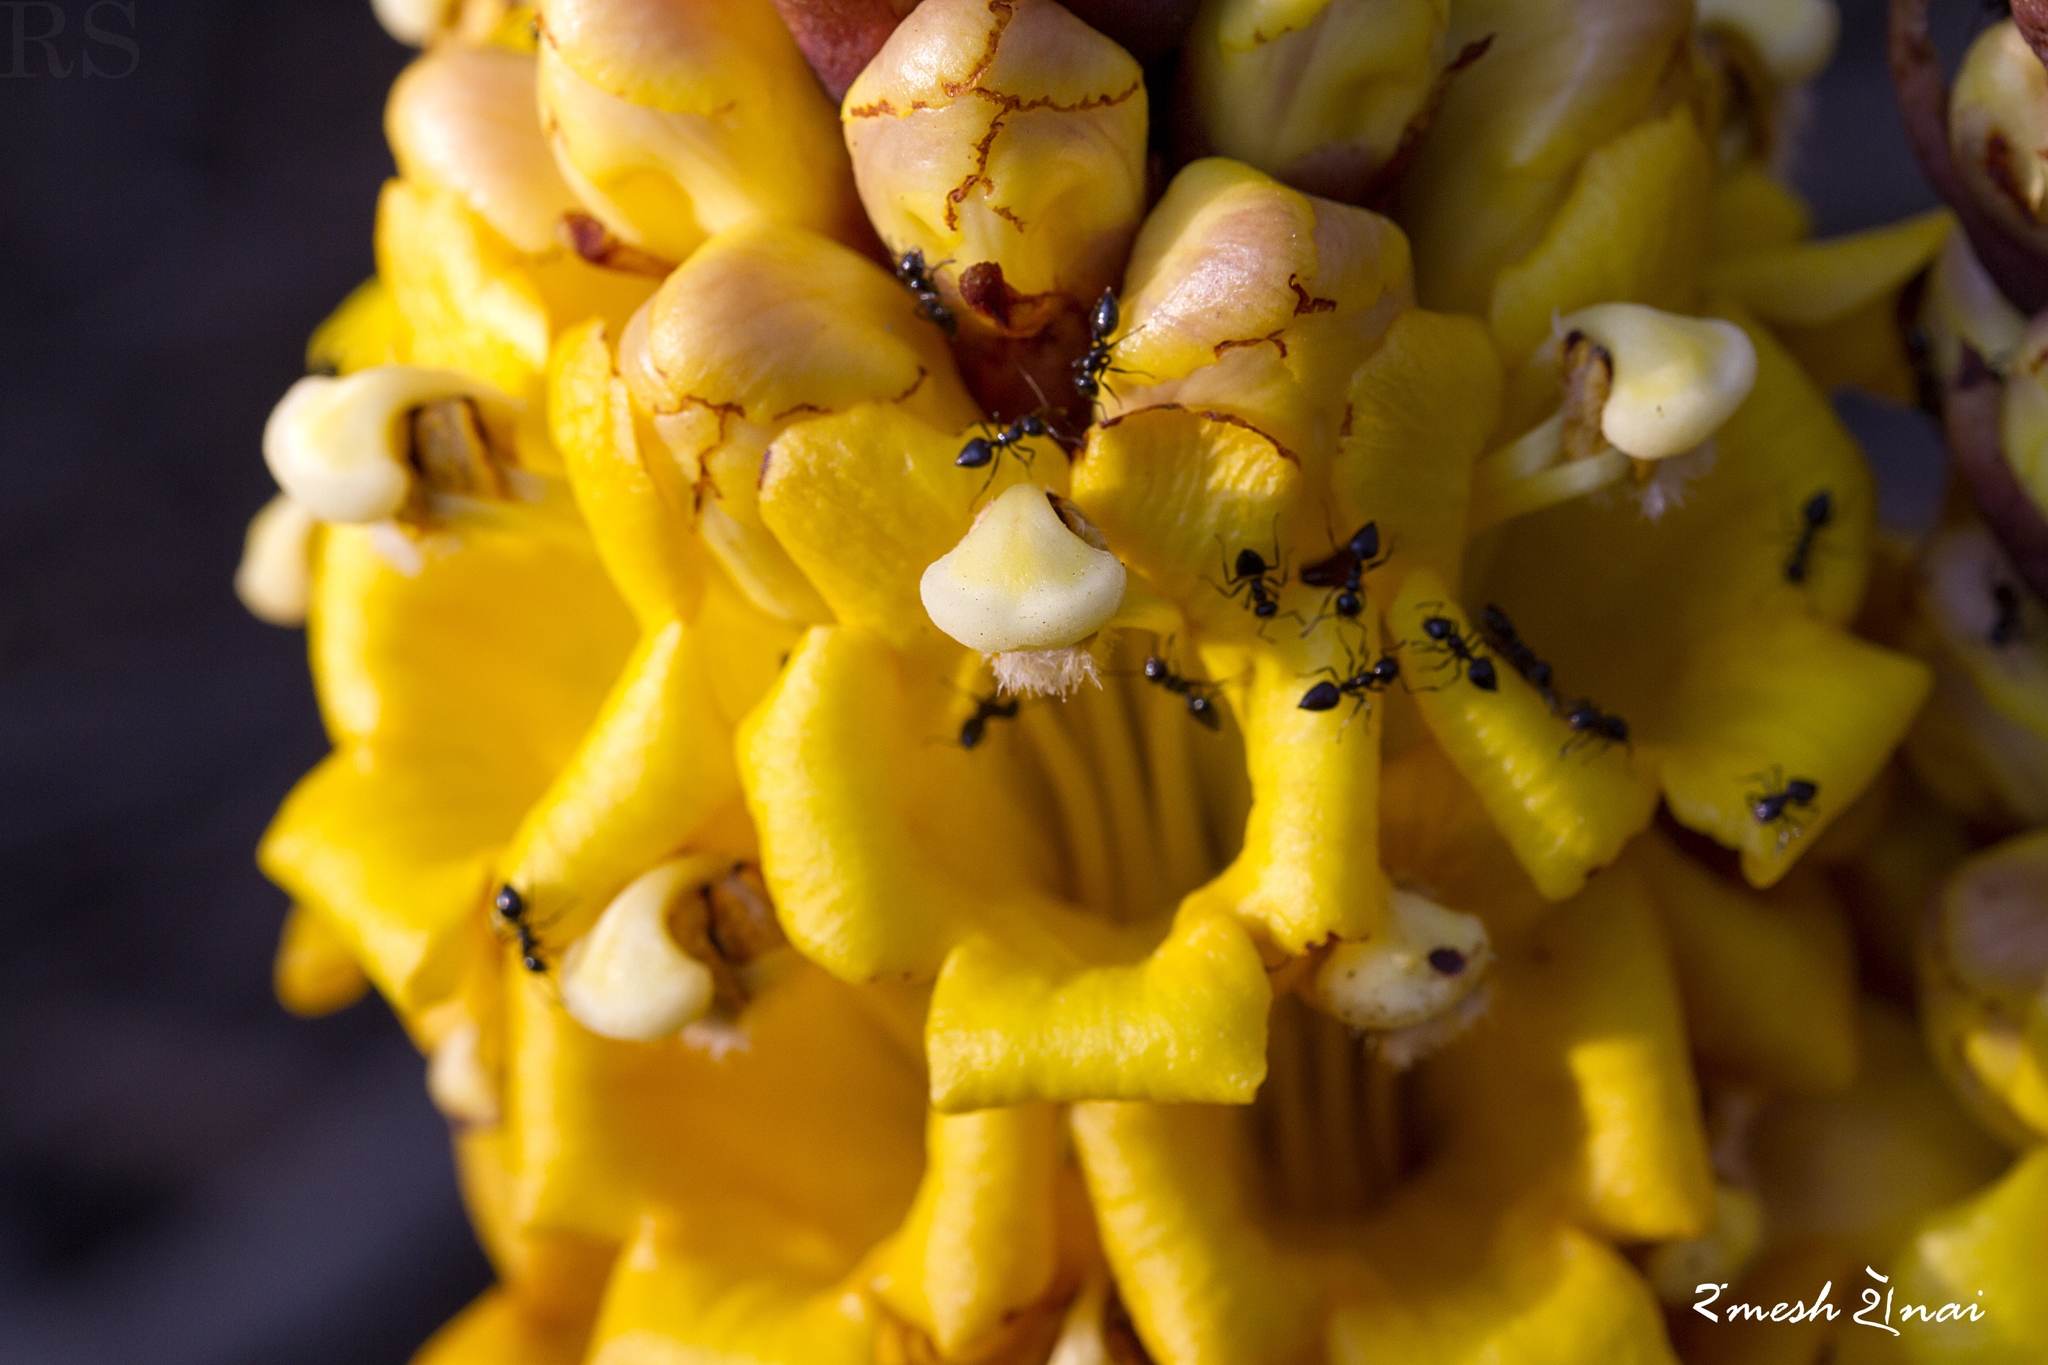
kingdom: Plantae
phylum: Tracheophyta
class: Magnoliopsida
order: Lamiales
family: Orobanchaceae
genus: Cistanche
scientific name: Cistanche tubulosa
